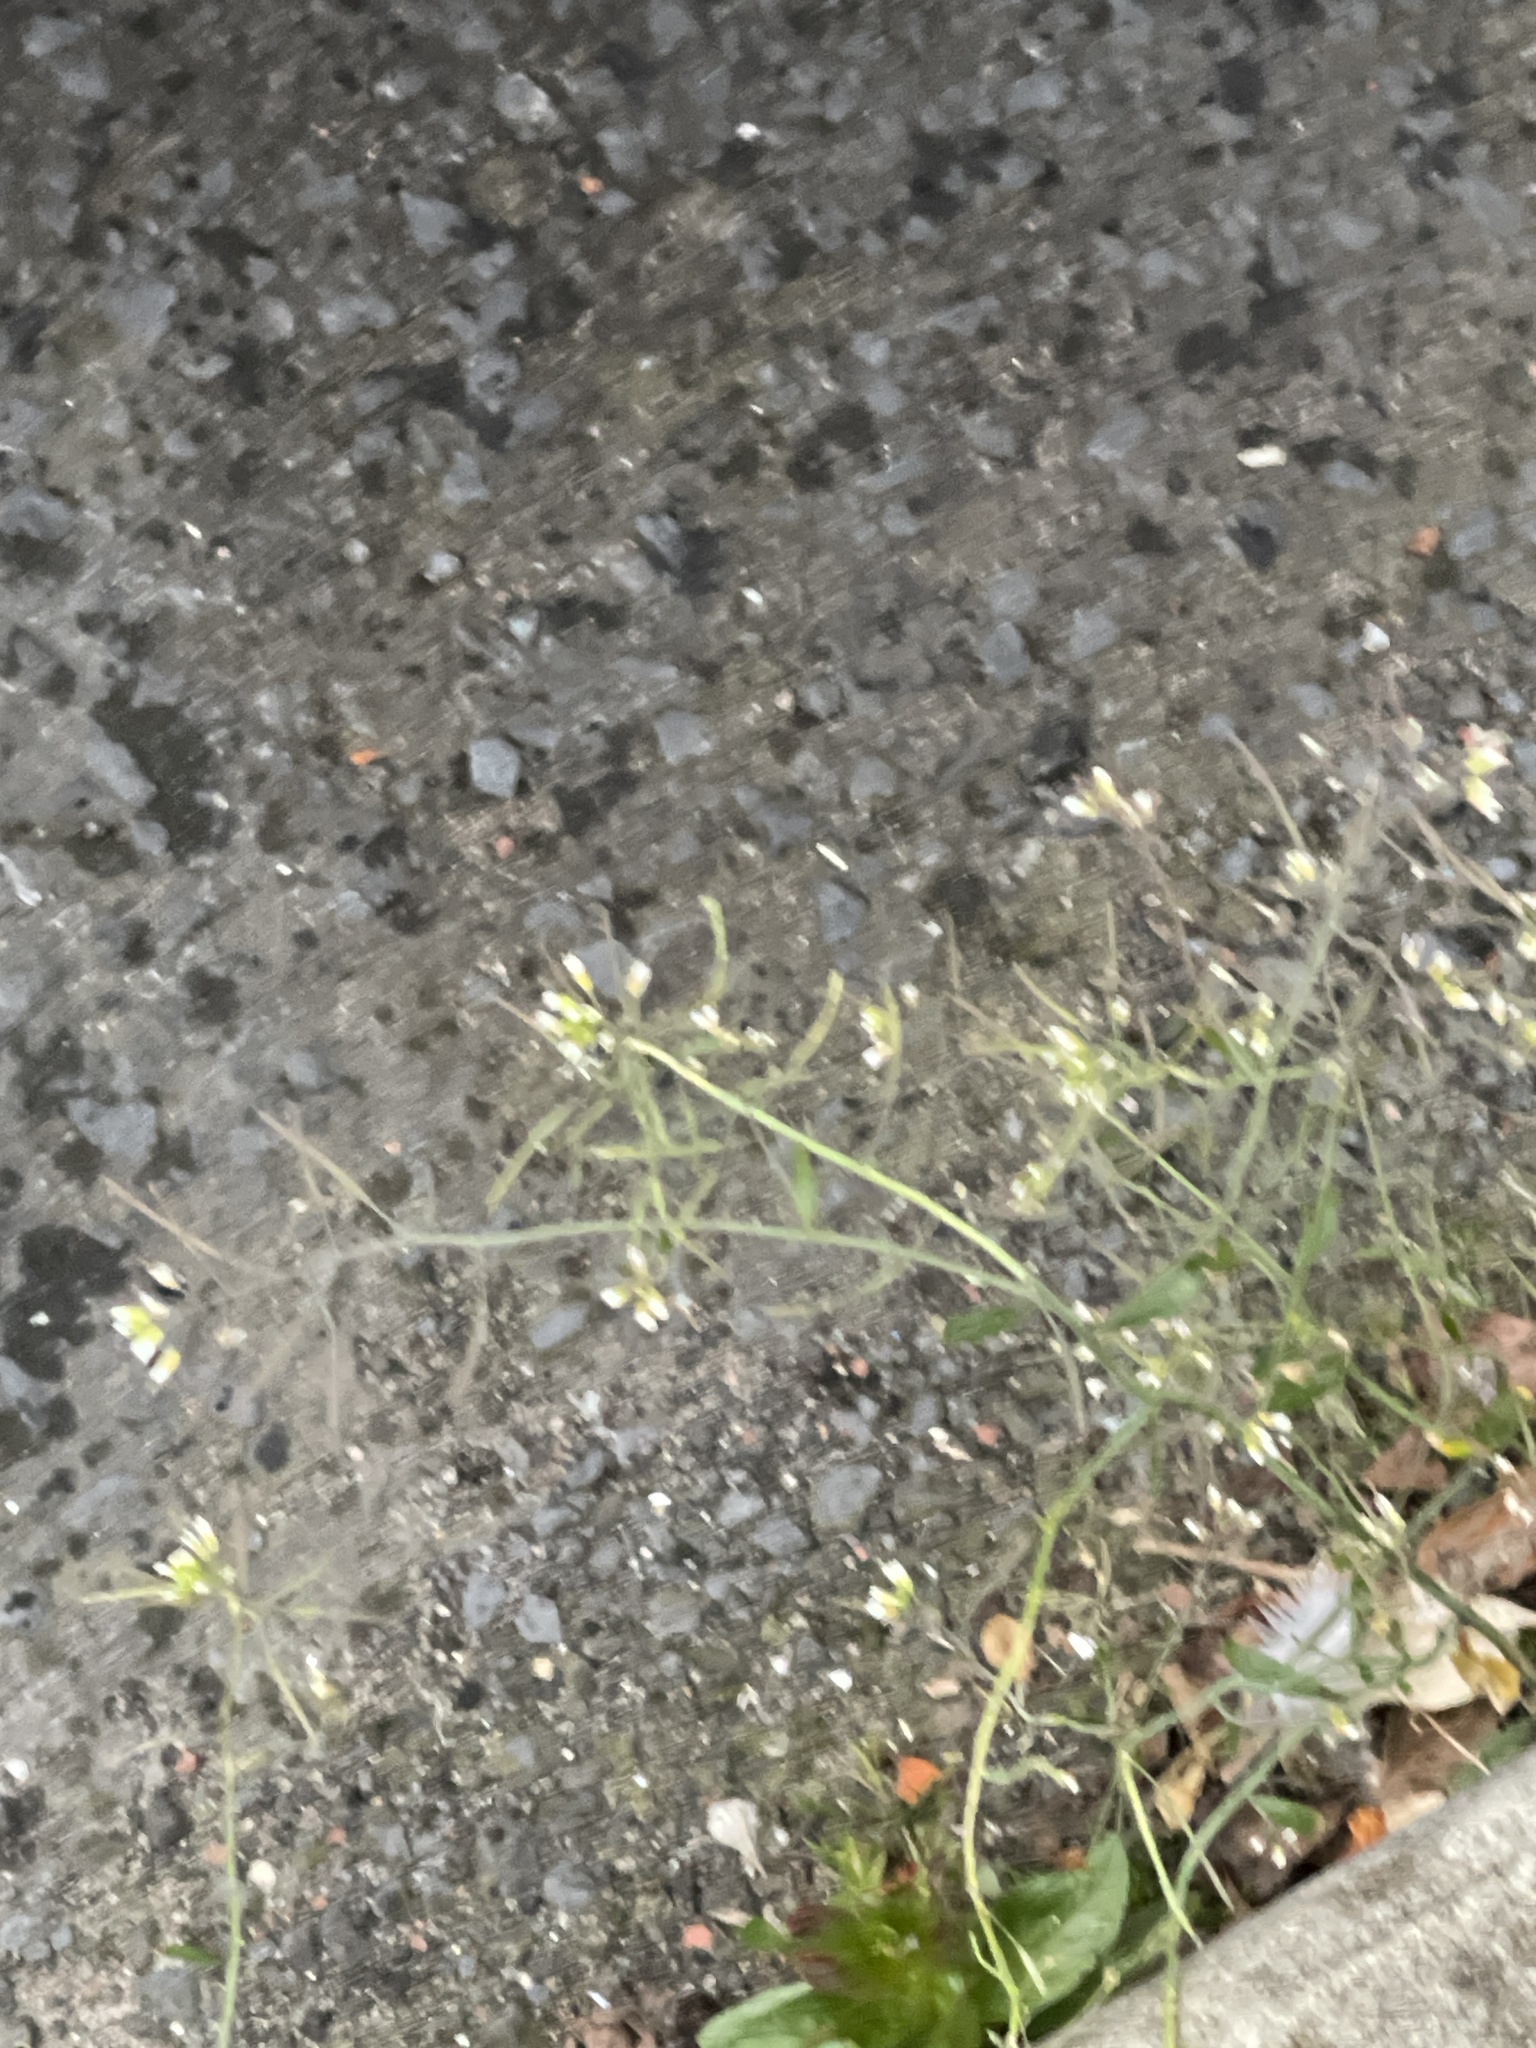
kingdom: Plantae
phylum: Tracheophyta
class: Magnoliopsida
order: Brassicales
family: Brassicaceae
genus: Arabidopsis
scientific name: Arabidopsis thaliana
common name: Thale cress
